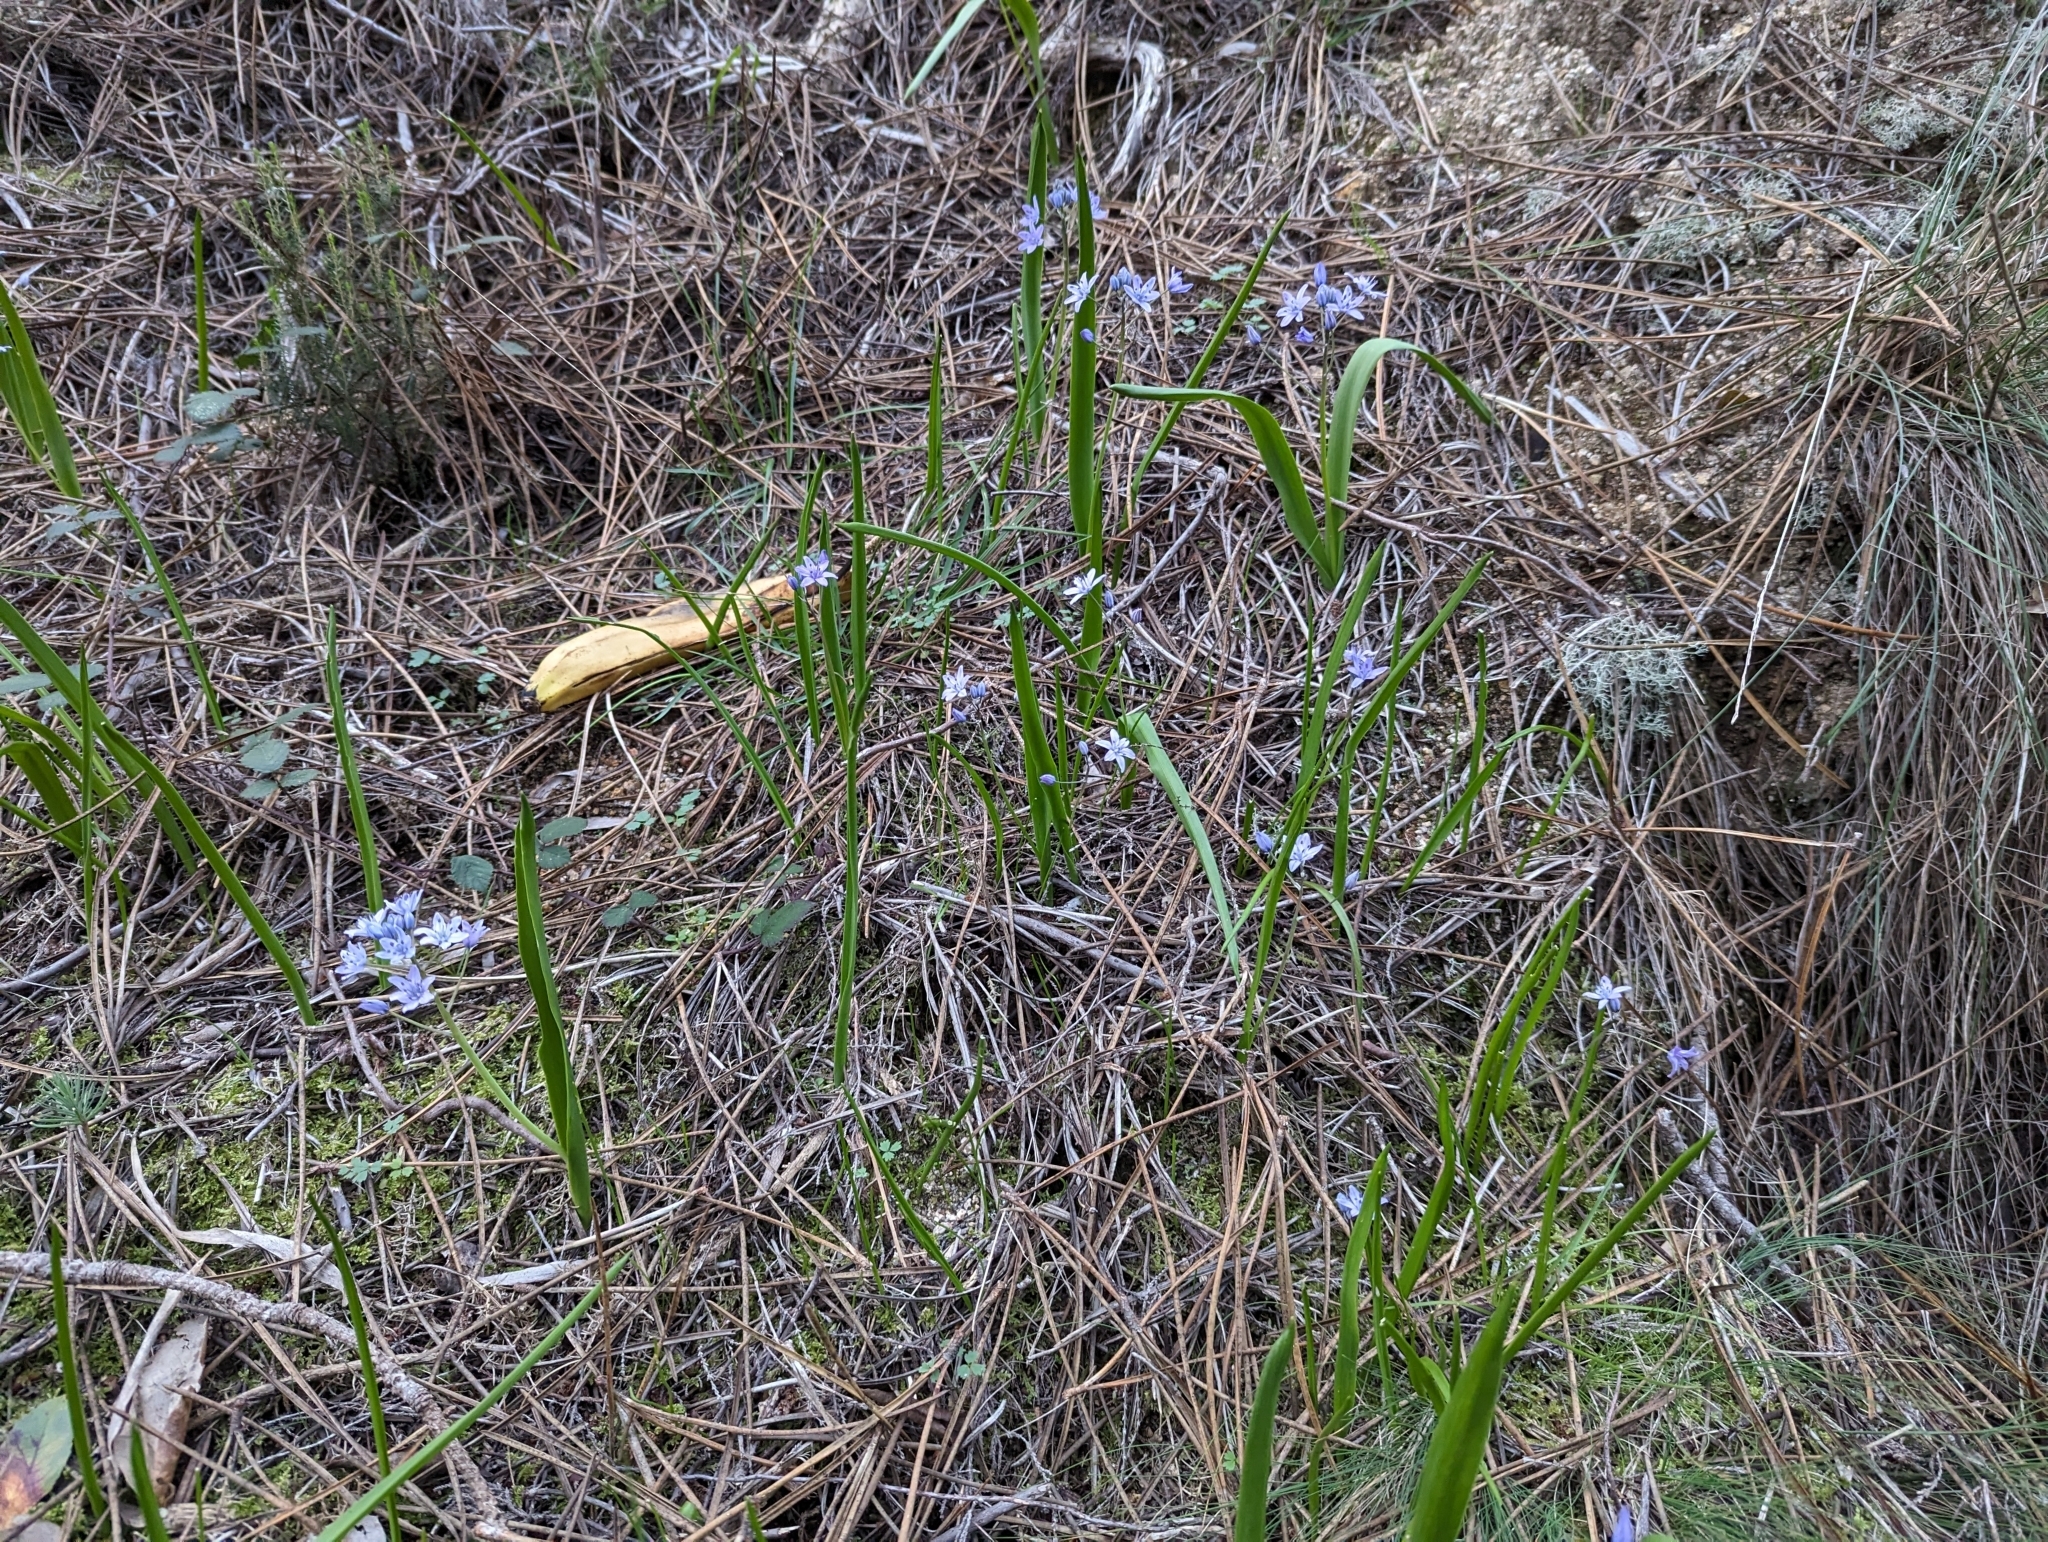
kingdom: Plantae
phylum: Tracheophyta
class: Liliopsida
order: Asparagales
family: Asparagaceae
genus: Scilla
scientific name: Scilla monophyllos
